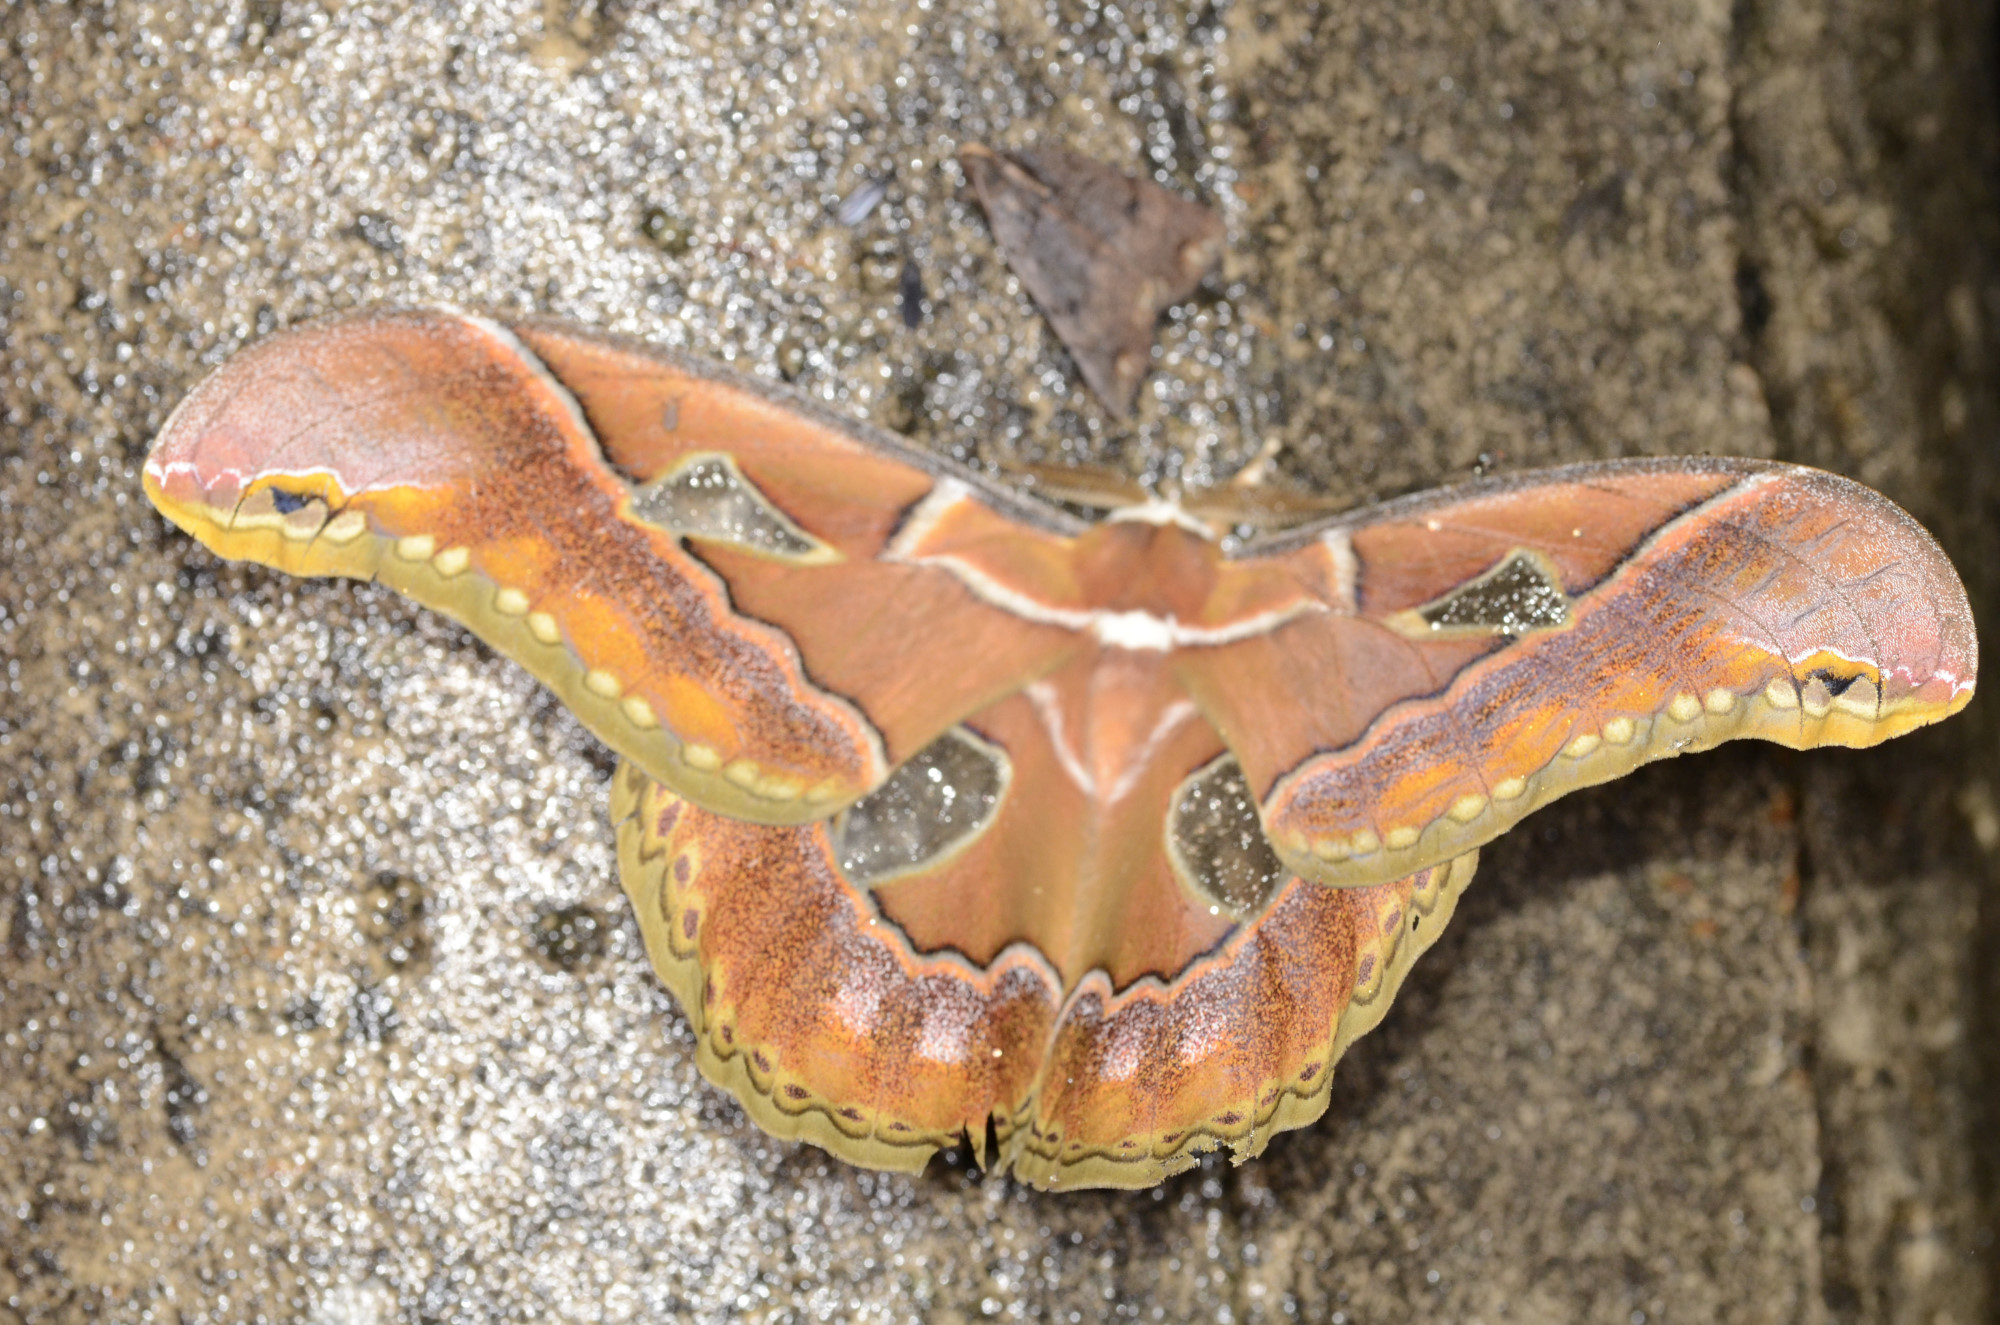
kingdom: Animalia
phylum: Arthropoda
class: Insecta
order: Lepidoptera
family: Saturniidae
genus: Rothschildia
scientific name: Rothschildia aricia
